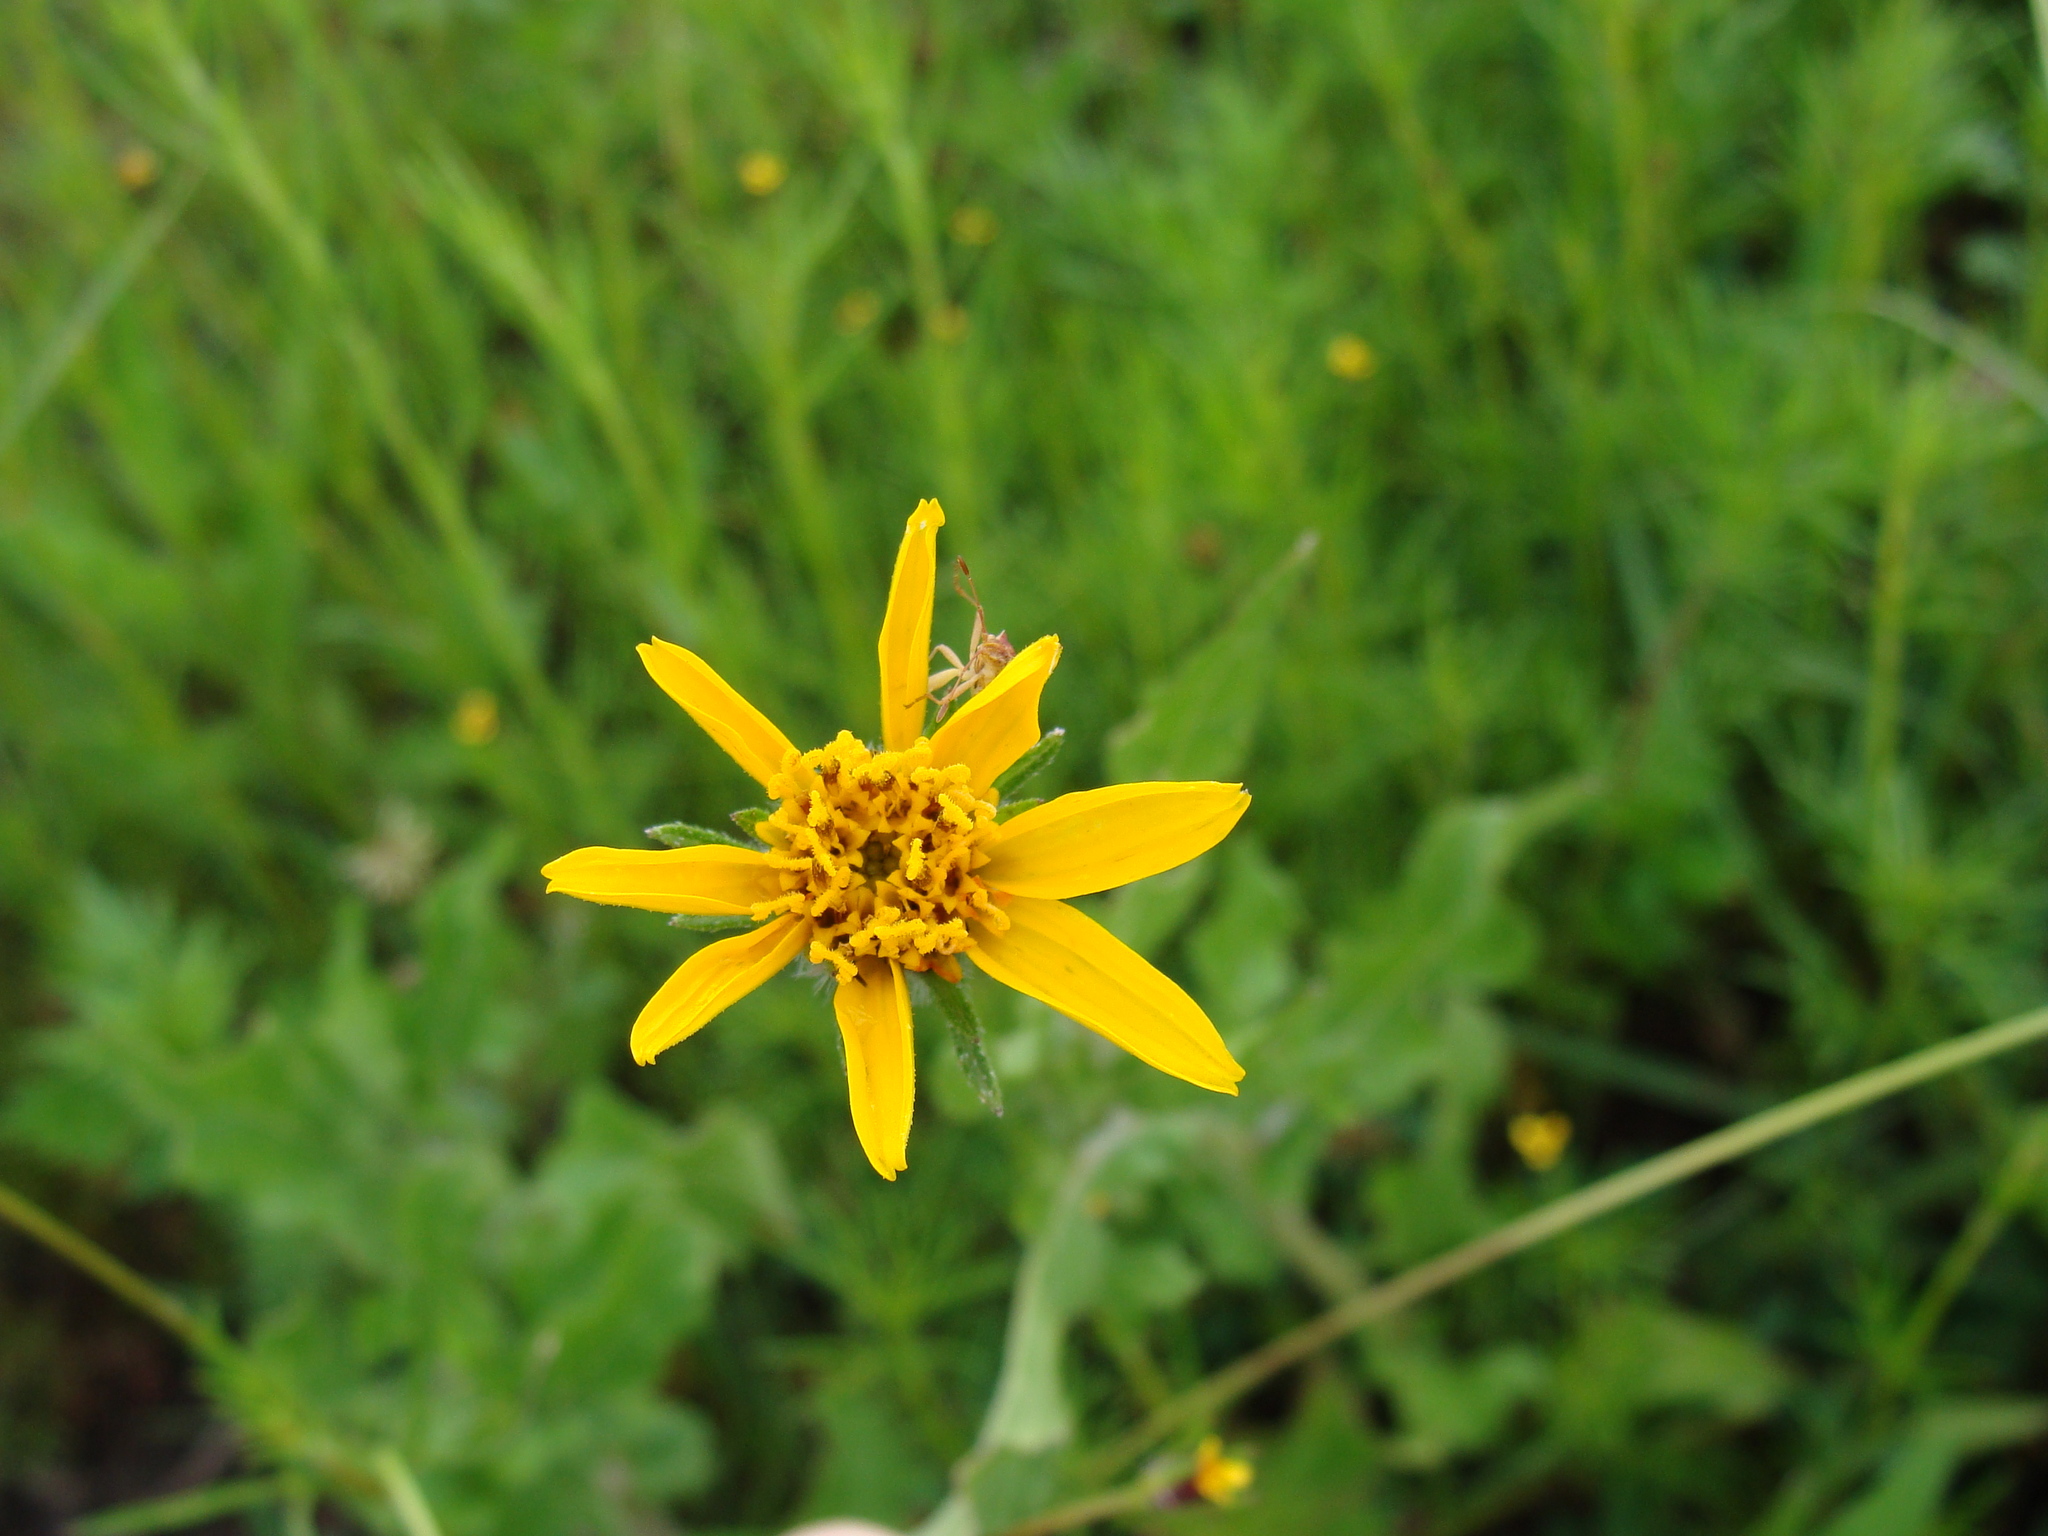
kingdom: Plantae
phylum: Tracheophyta
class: Magnoliopsida
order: Asterales
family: Asteraceae
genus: Simsia
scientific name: Simsia amplexicaulis
